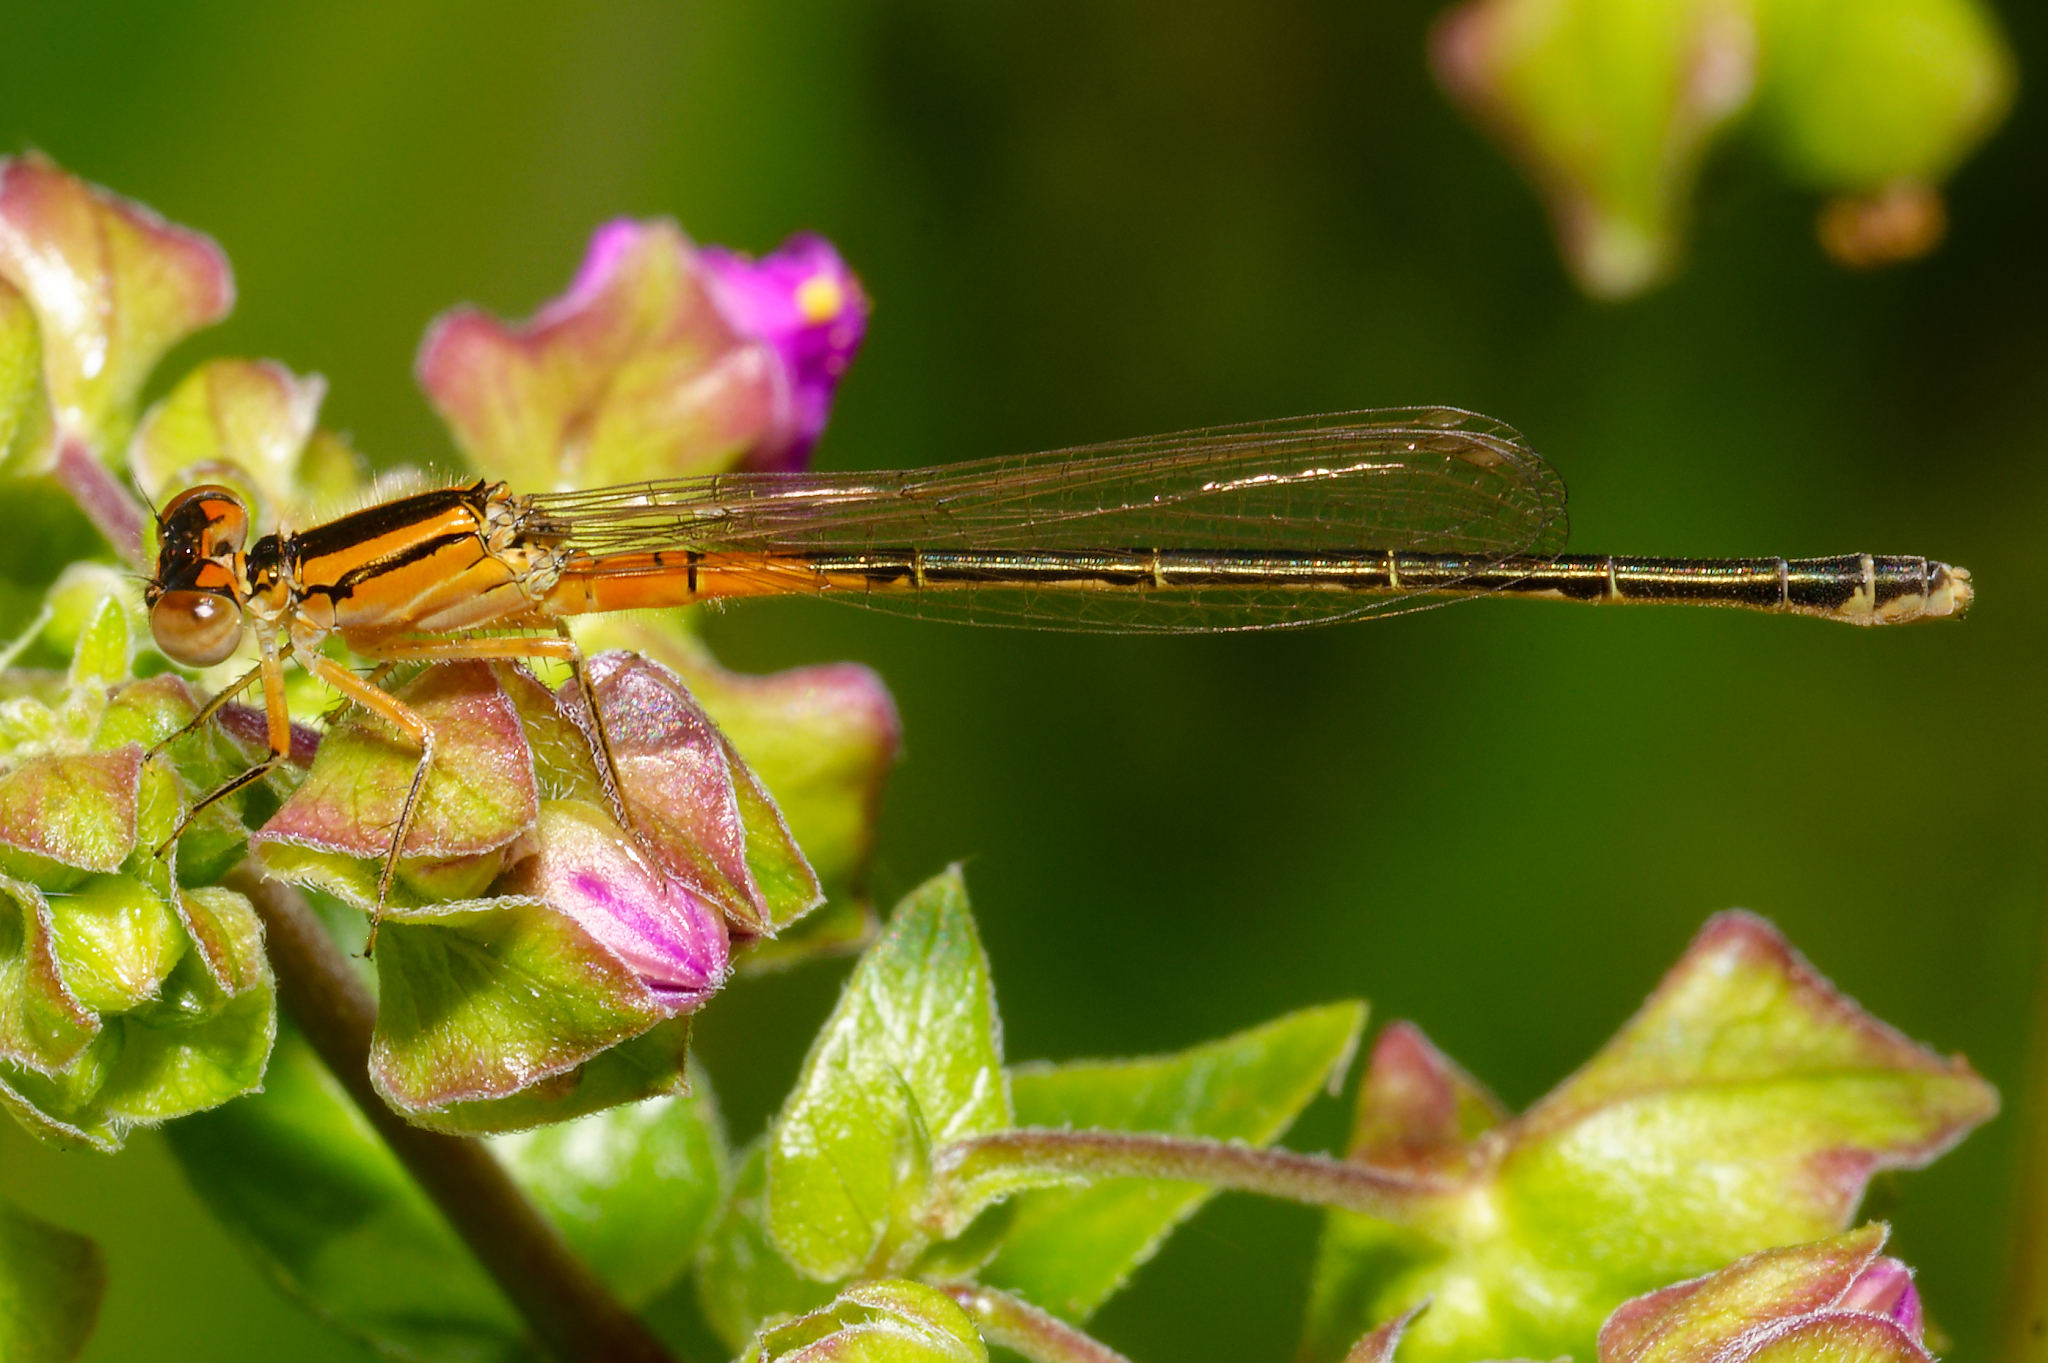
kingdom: Animalia
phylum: Arthropoda
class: Insecta
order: Odonata
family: Coenagrionidae
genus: Ischnura
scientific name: Ischnura verticalis
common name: Eastern forktail
